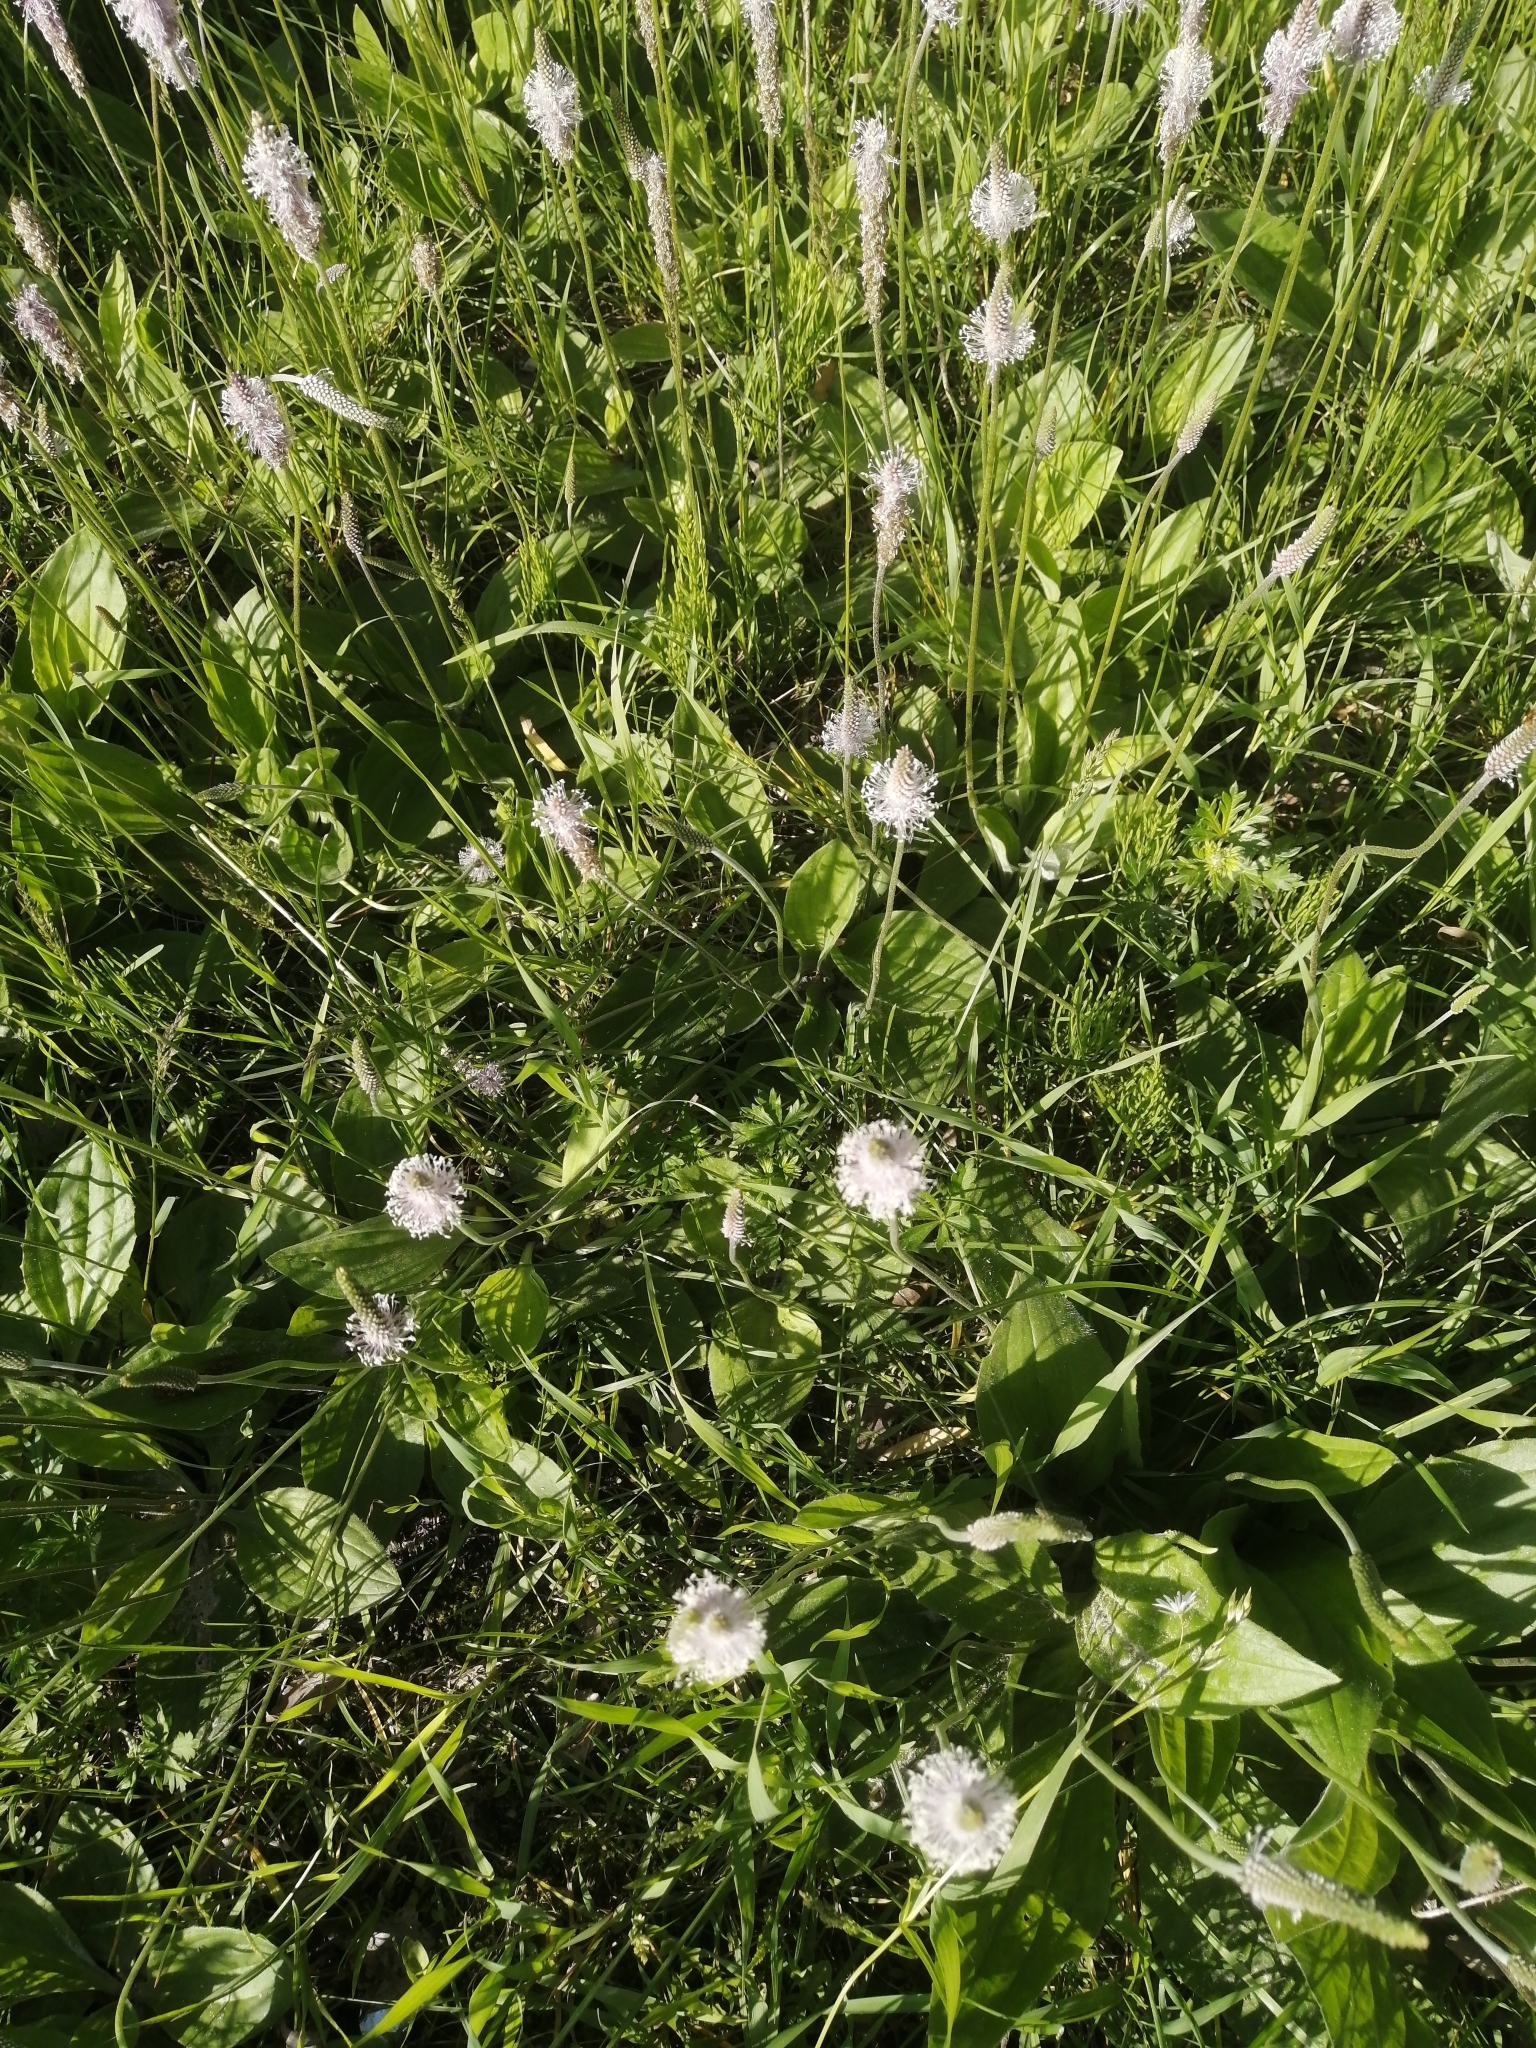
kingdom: Plantae
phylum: Tracheophyta
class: Magnoliopsida
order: Lamiales
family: Plantaginaceae
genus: Plantago
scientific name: Plantago media
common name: Hoary plantain
